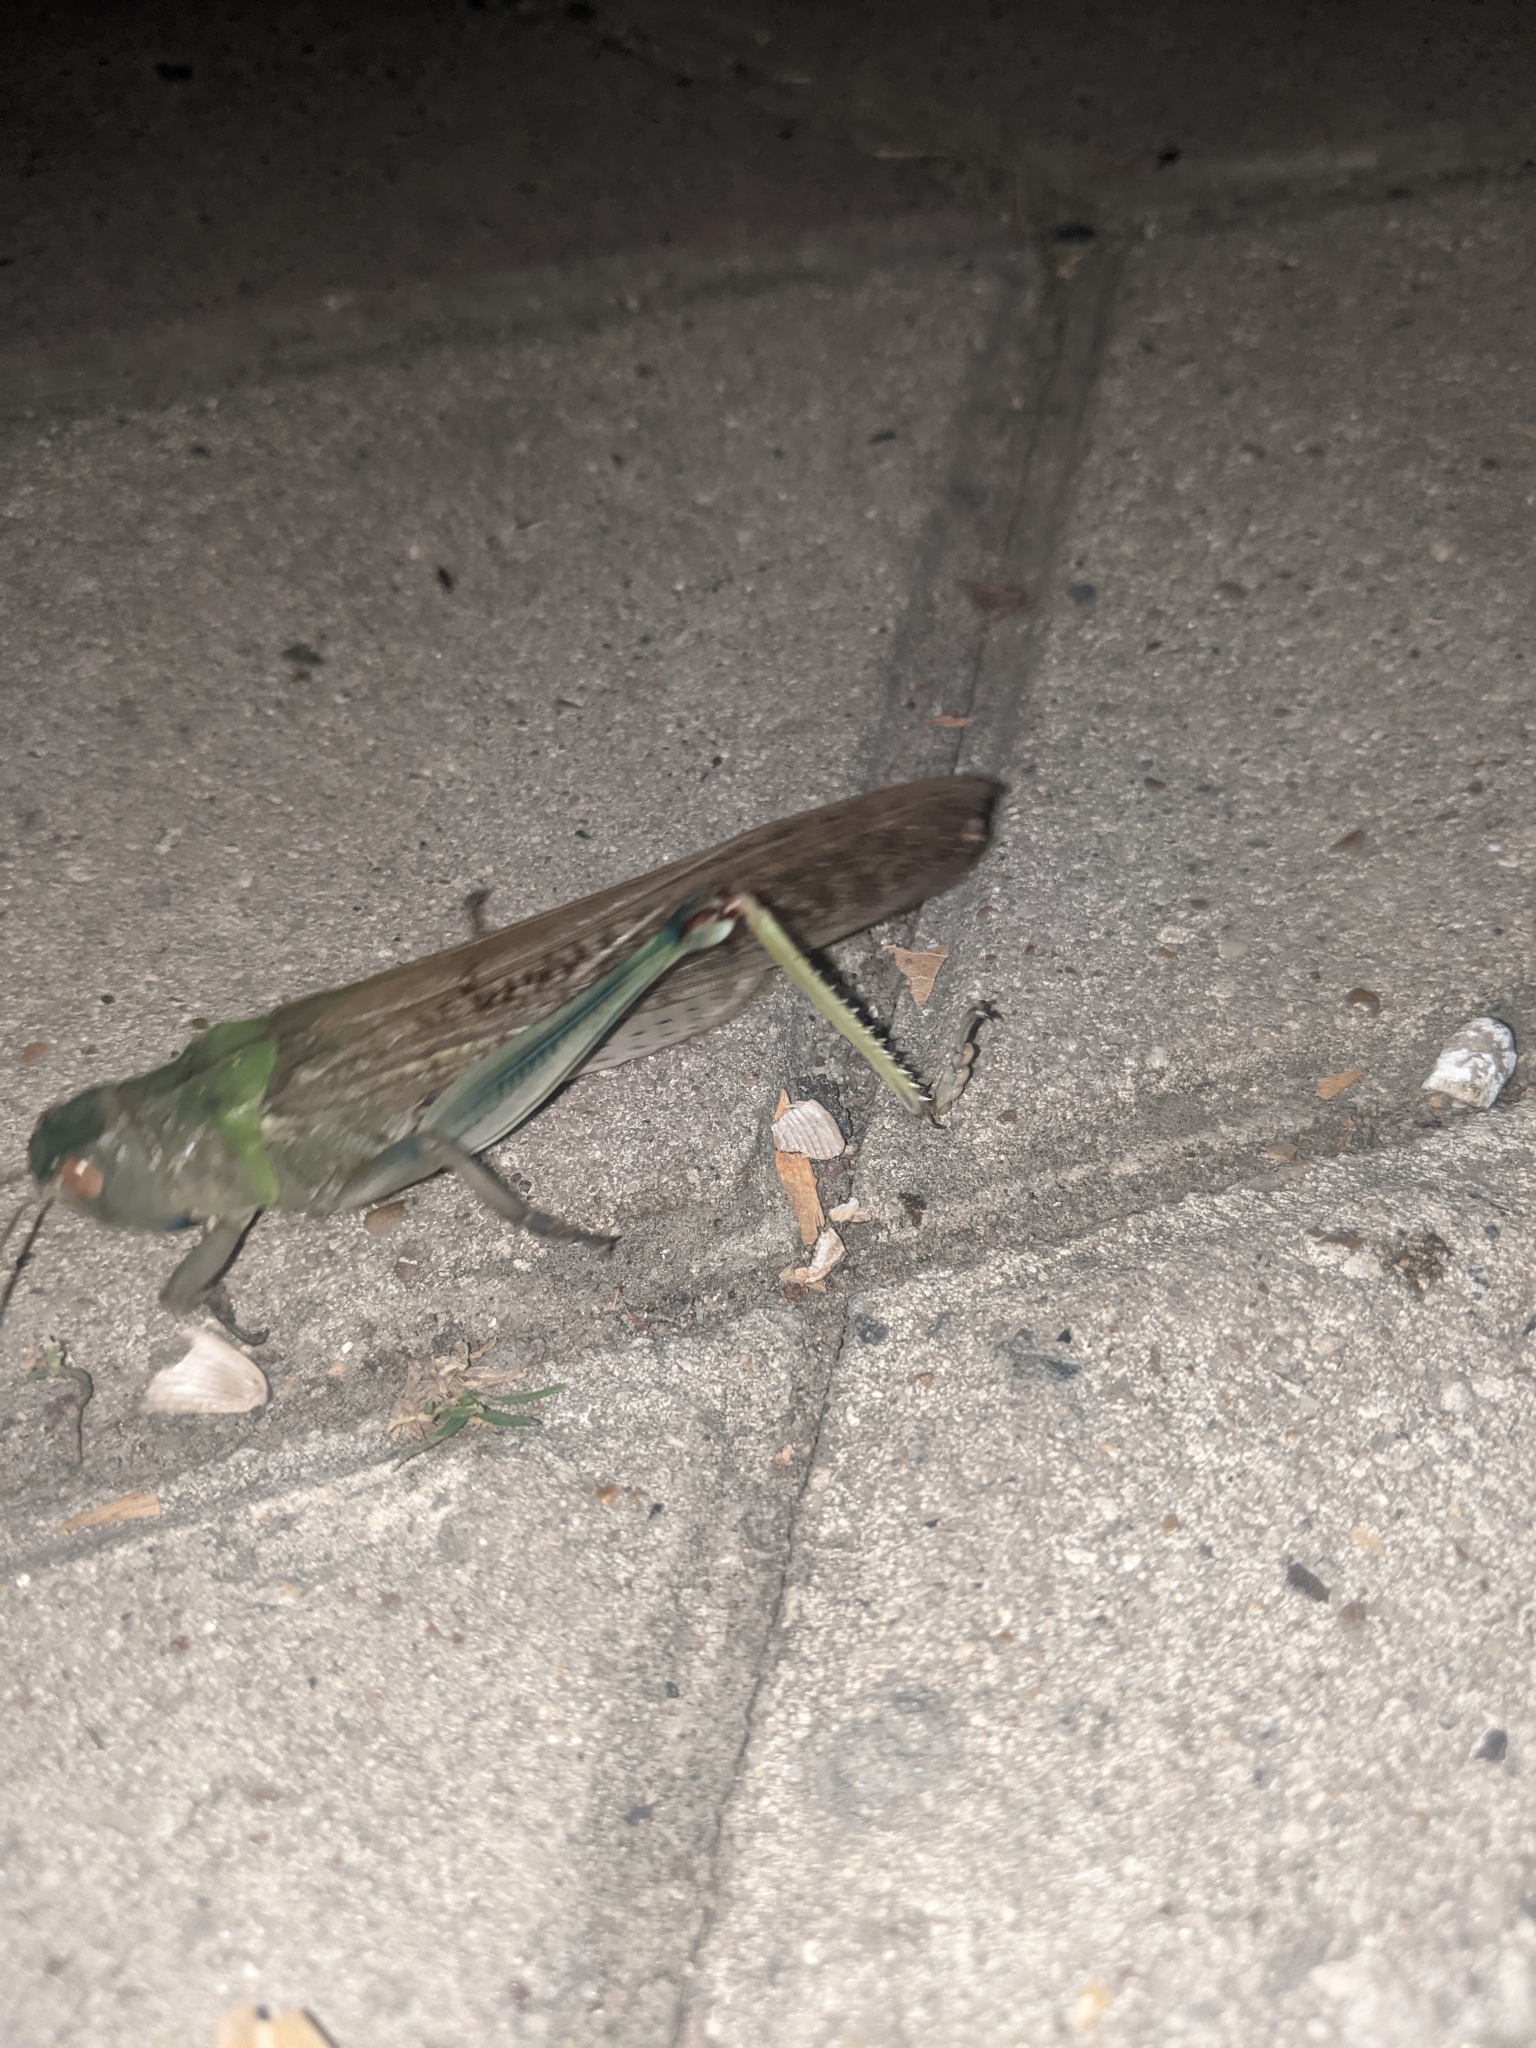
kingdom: Animalia
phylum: Arthropoda
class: Insecta
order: Orthoptera
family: Acrididae
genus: Locusta
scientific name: Locusta migratoria
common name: Migratory locust
